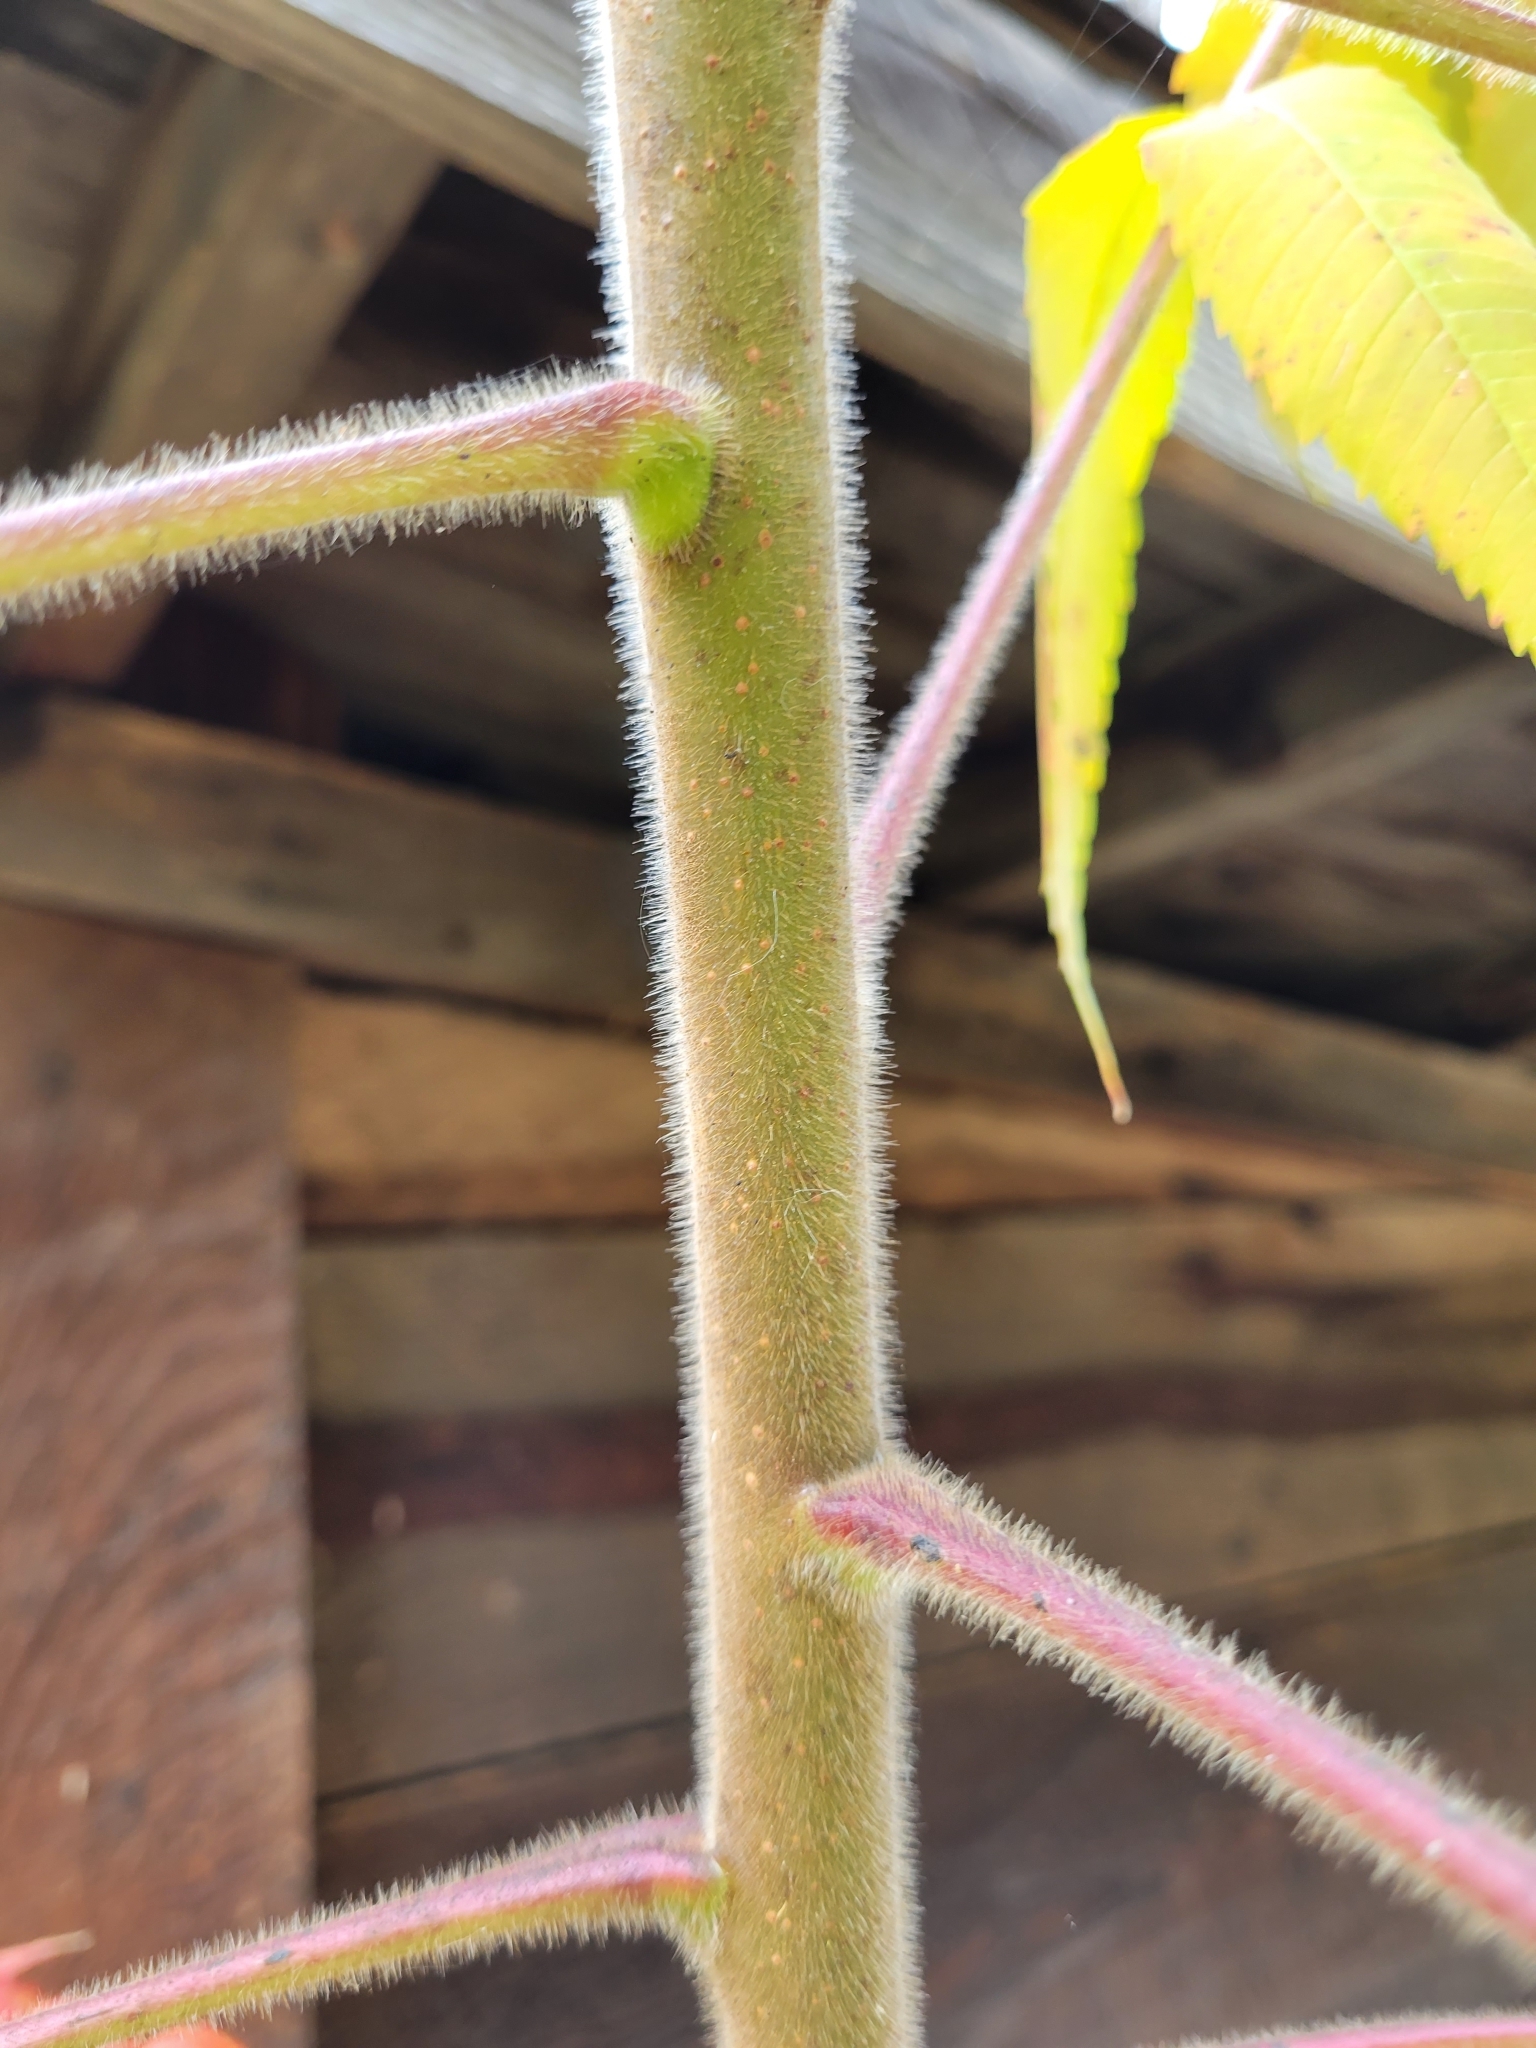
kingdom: Plantae
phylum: Tracheophyta
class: Magnoliopsida
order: Sapindales
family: Anacardiaceae
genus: Rhus
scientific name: Rhus typhina
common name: Staghorn sumac
